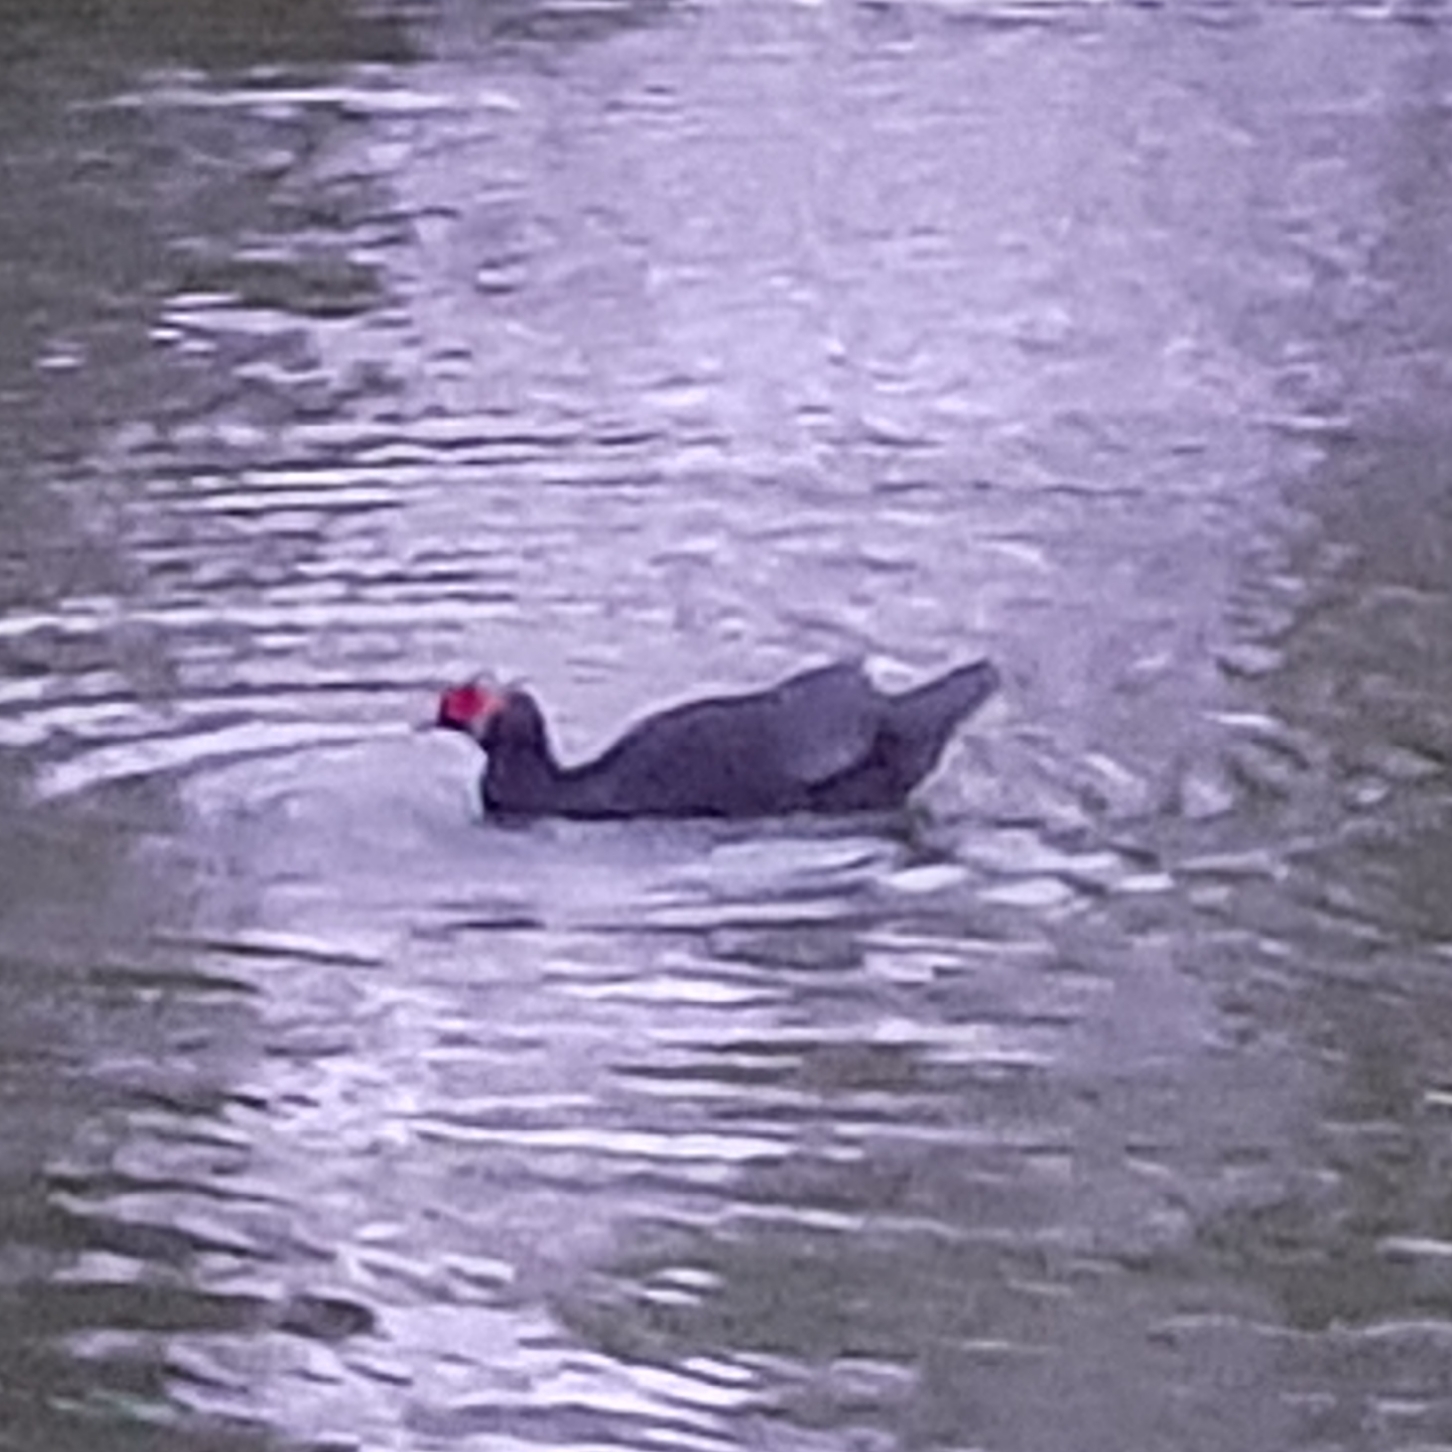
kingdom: Animalia
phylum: Chordata
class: Aves
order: Anseriformes
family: Anatidae
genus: Cairina
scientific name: Cairina moschata
